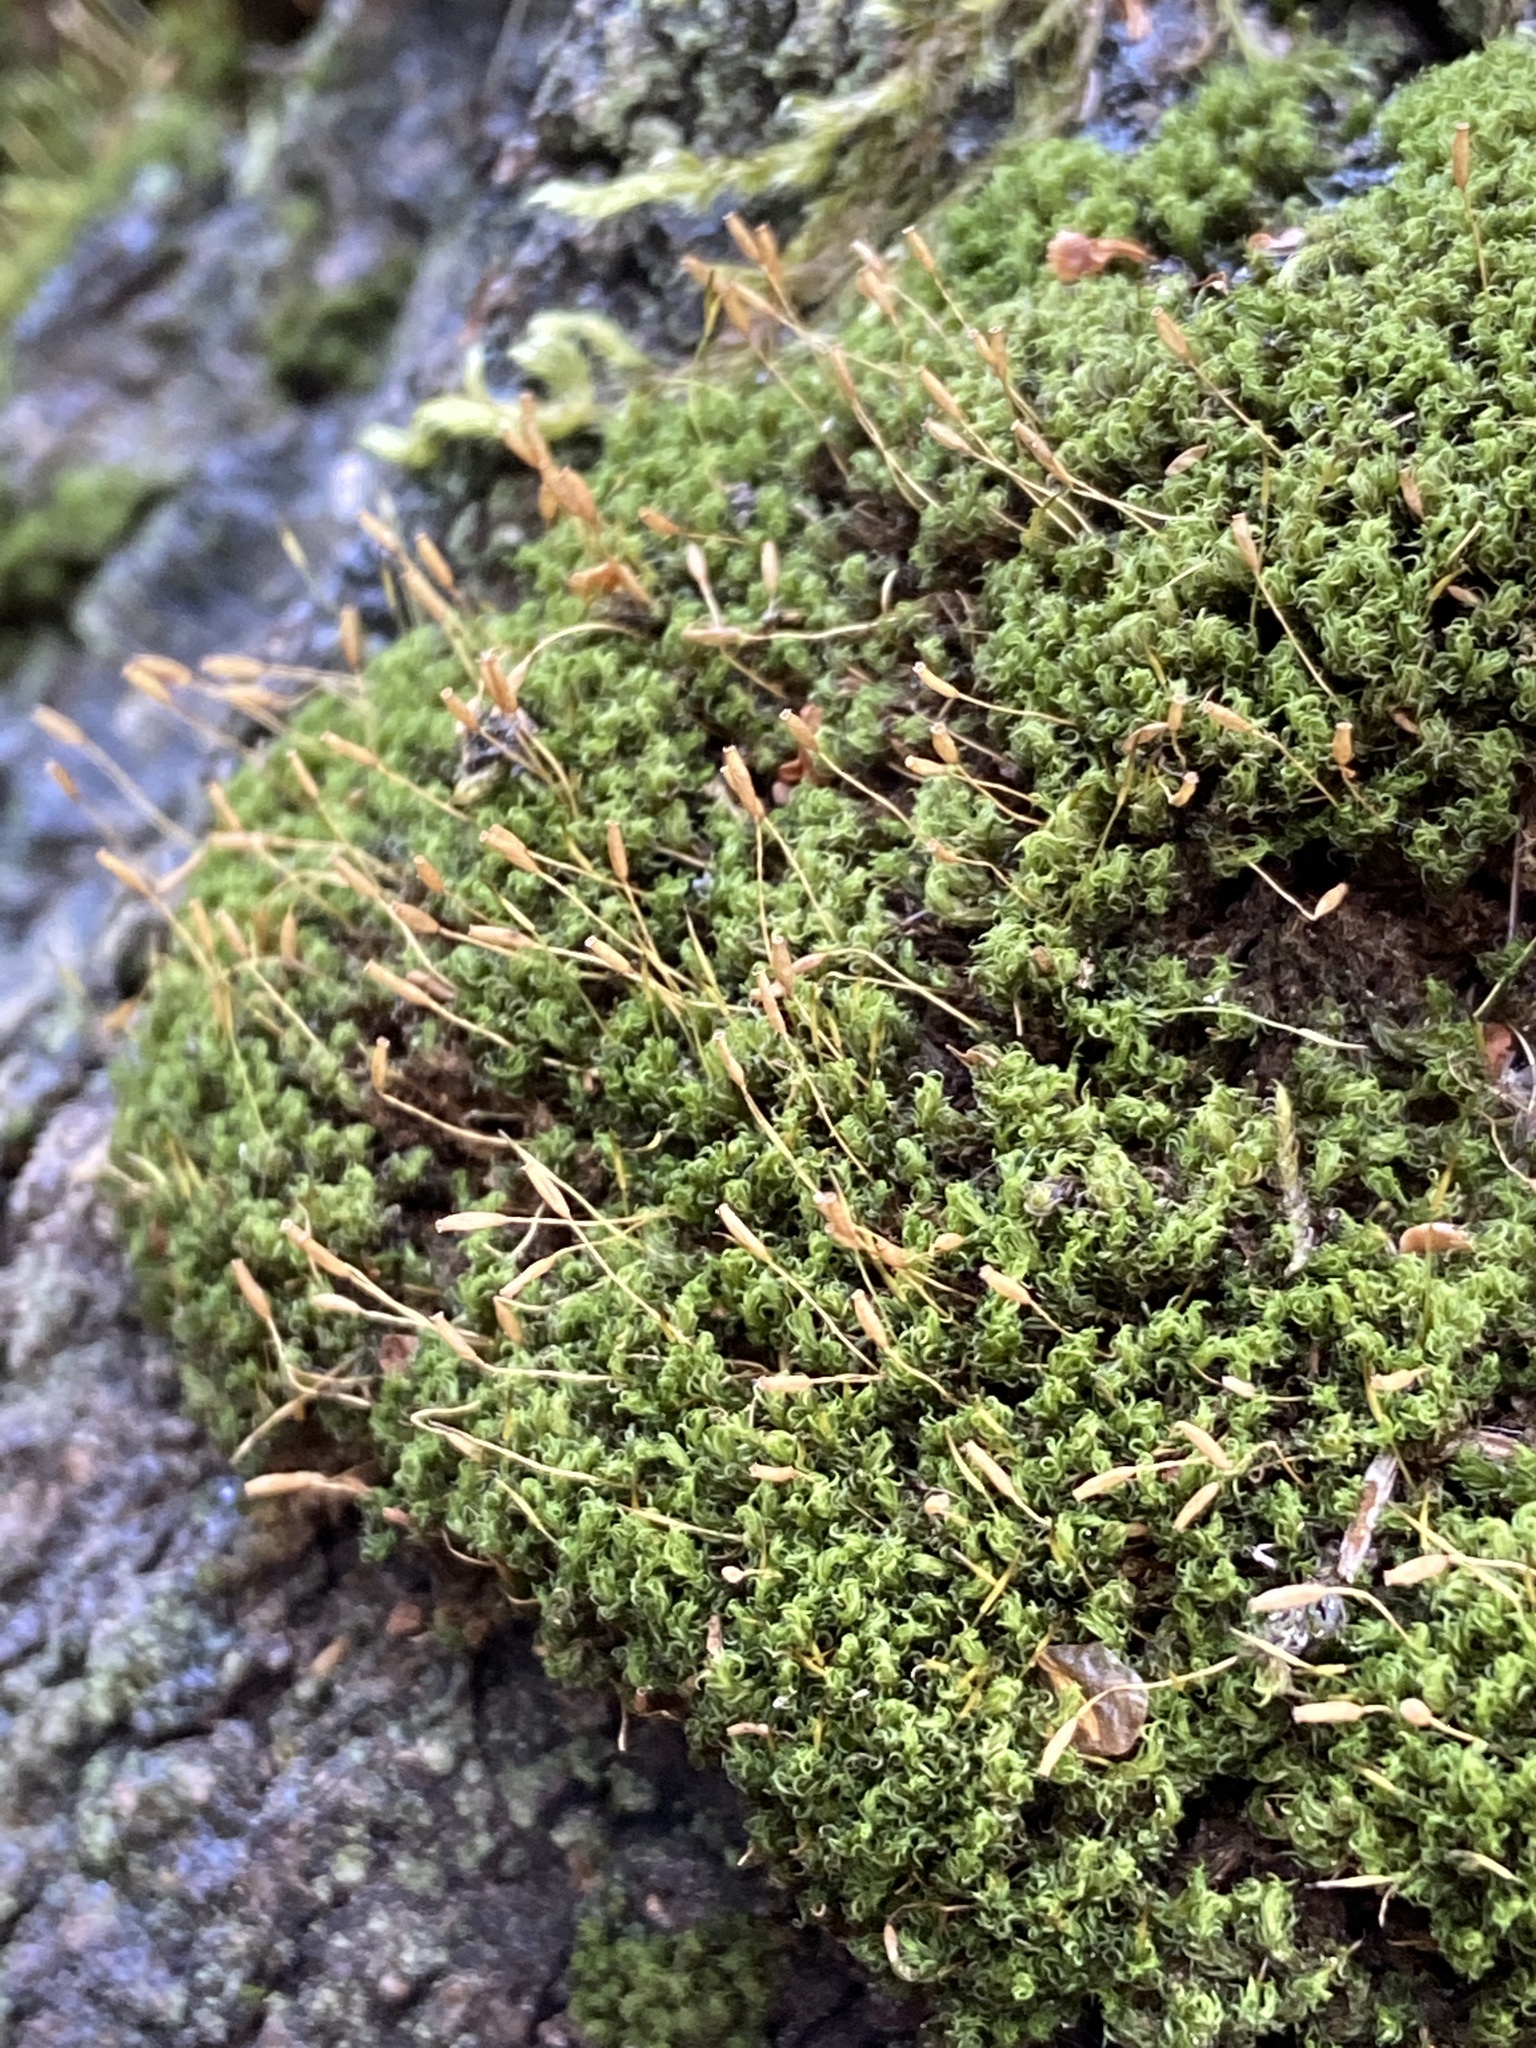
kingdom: Plantae
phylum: Bryophyta
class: Bryopsida
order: Dicranales
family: Rhabdoweisiaceae
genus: Dicranoweisia
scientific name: Dicranoweisia cirrata
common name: Common pincushion
